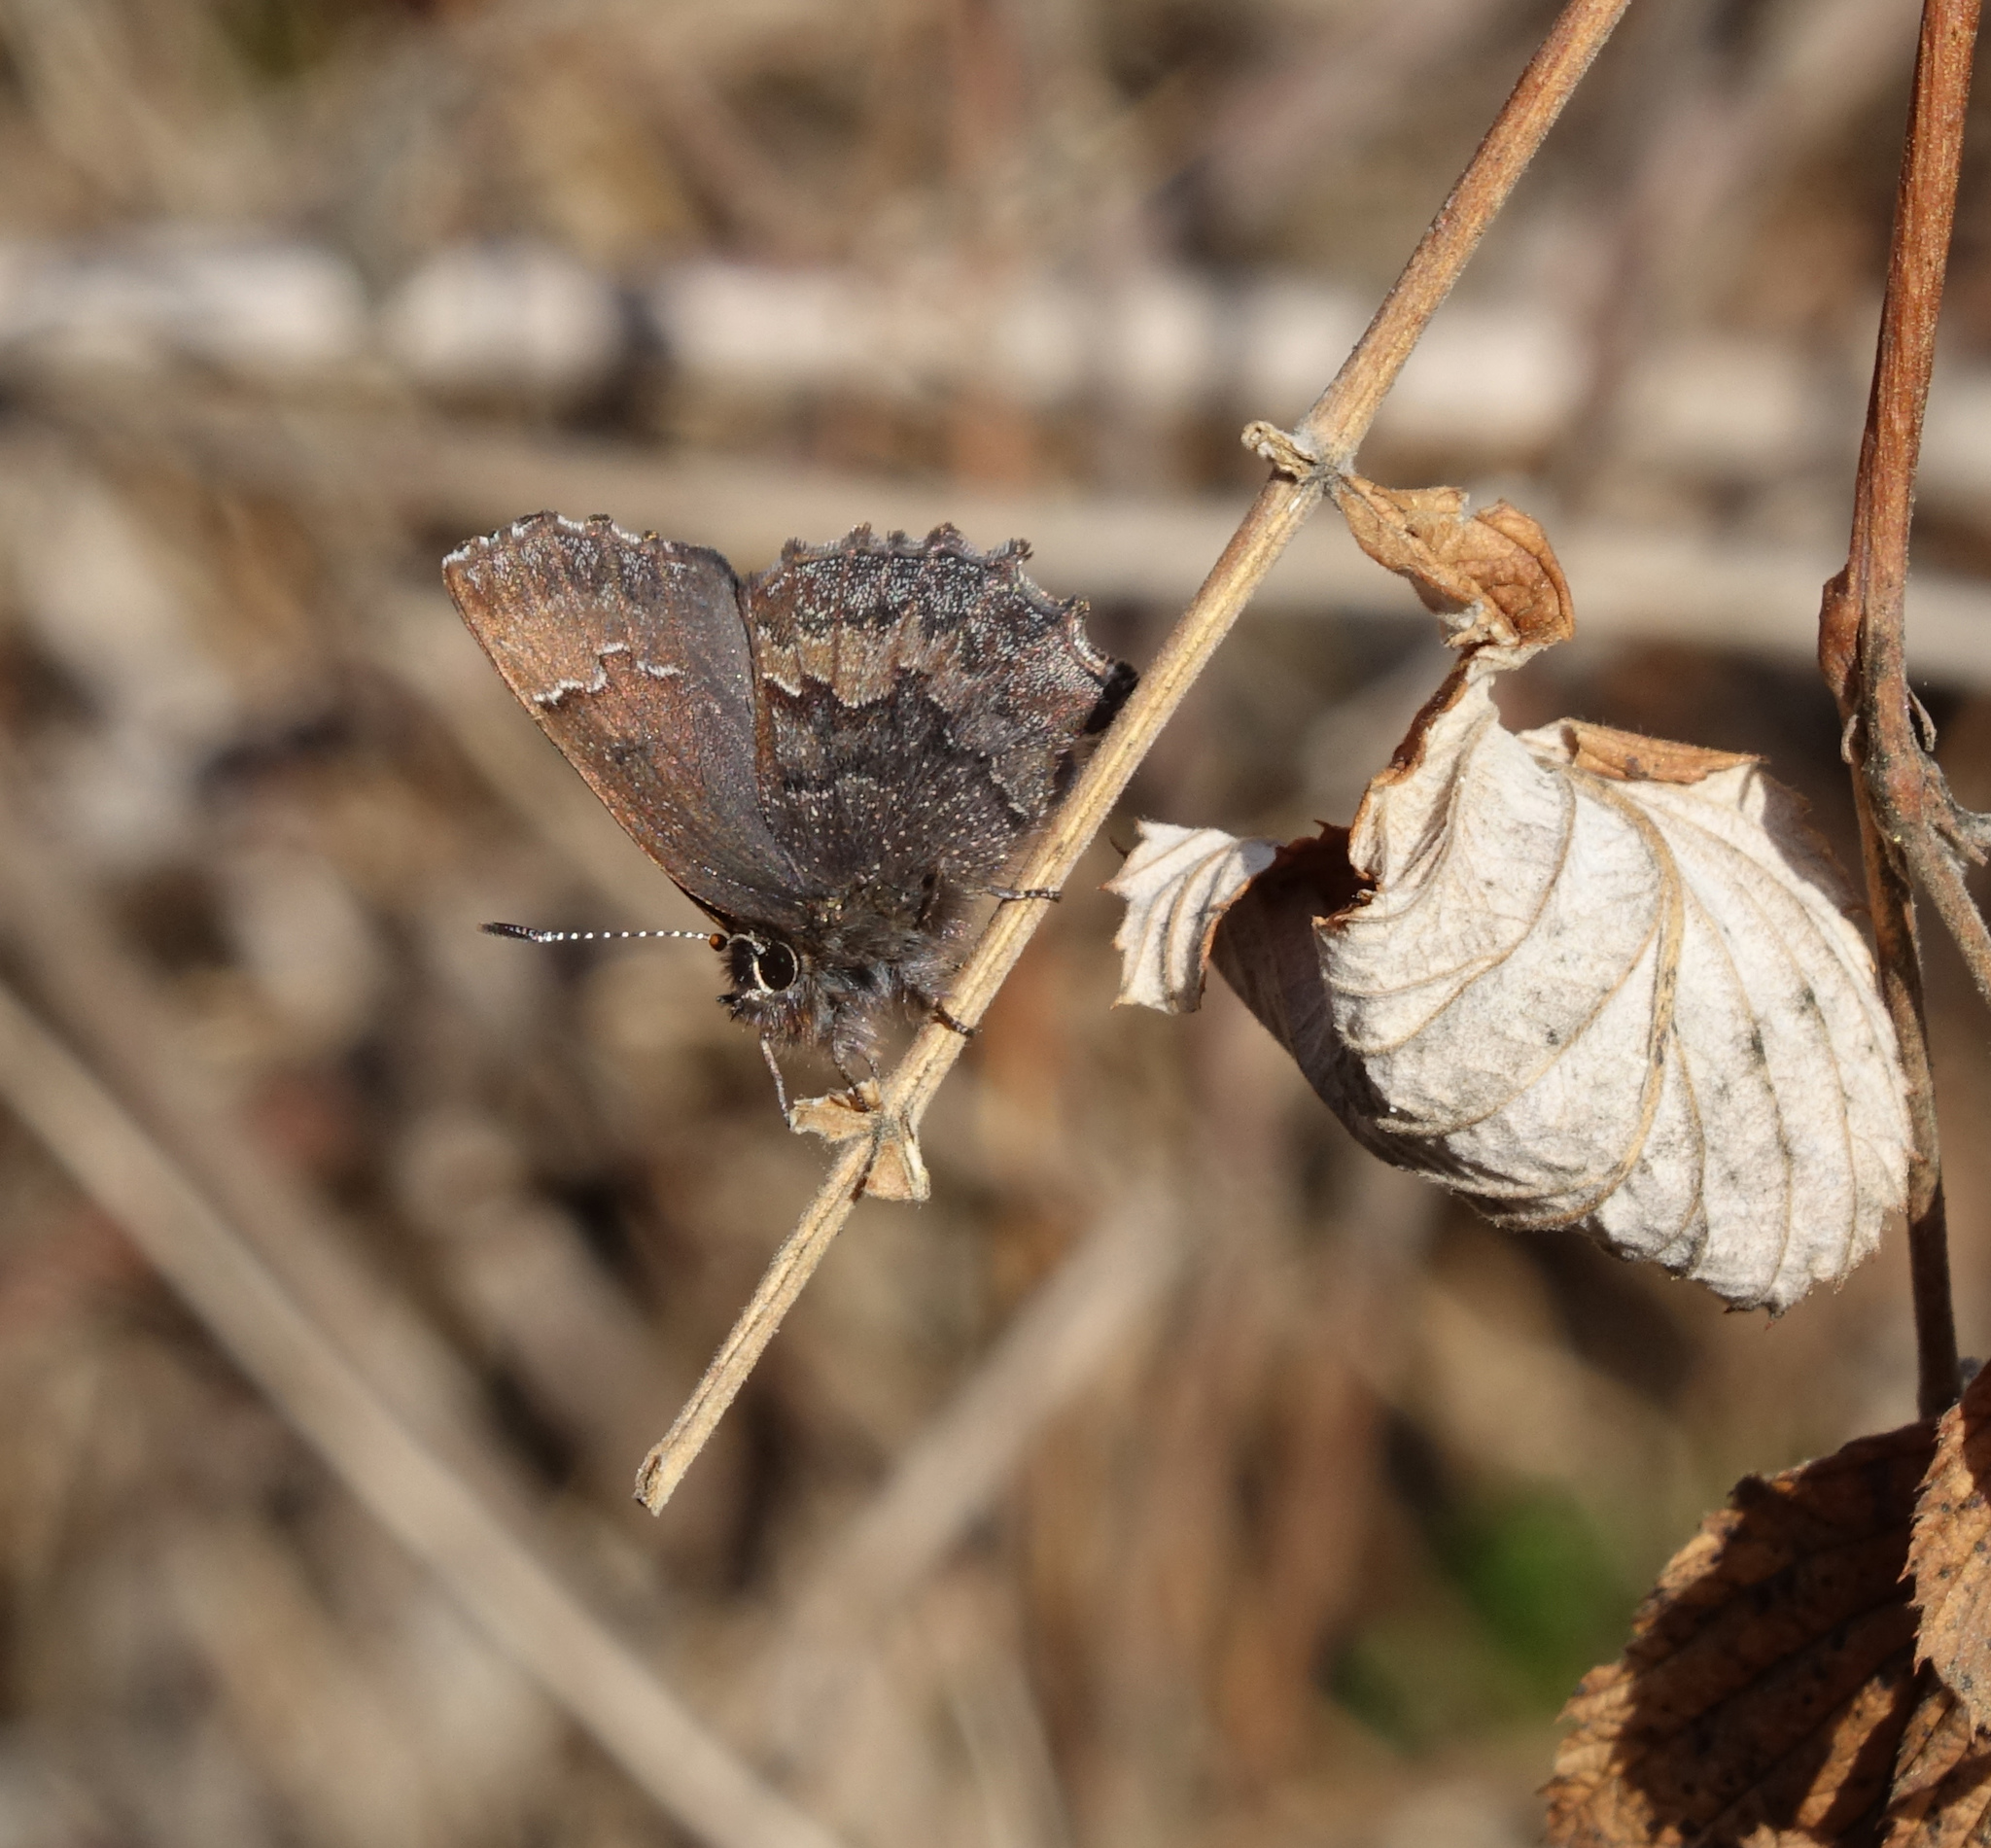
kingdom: Animalia
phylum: Arthropoda
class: Insecta
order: Lepidoptera
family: Lycaenidae
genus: Ginzia
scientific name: Ginzia Ahlbergia frivaldszkyi
